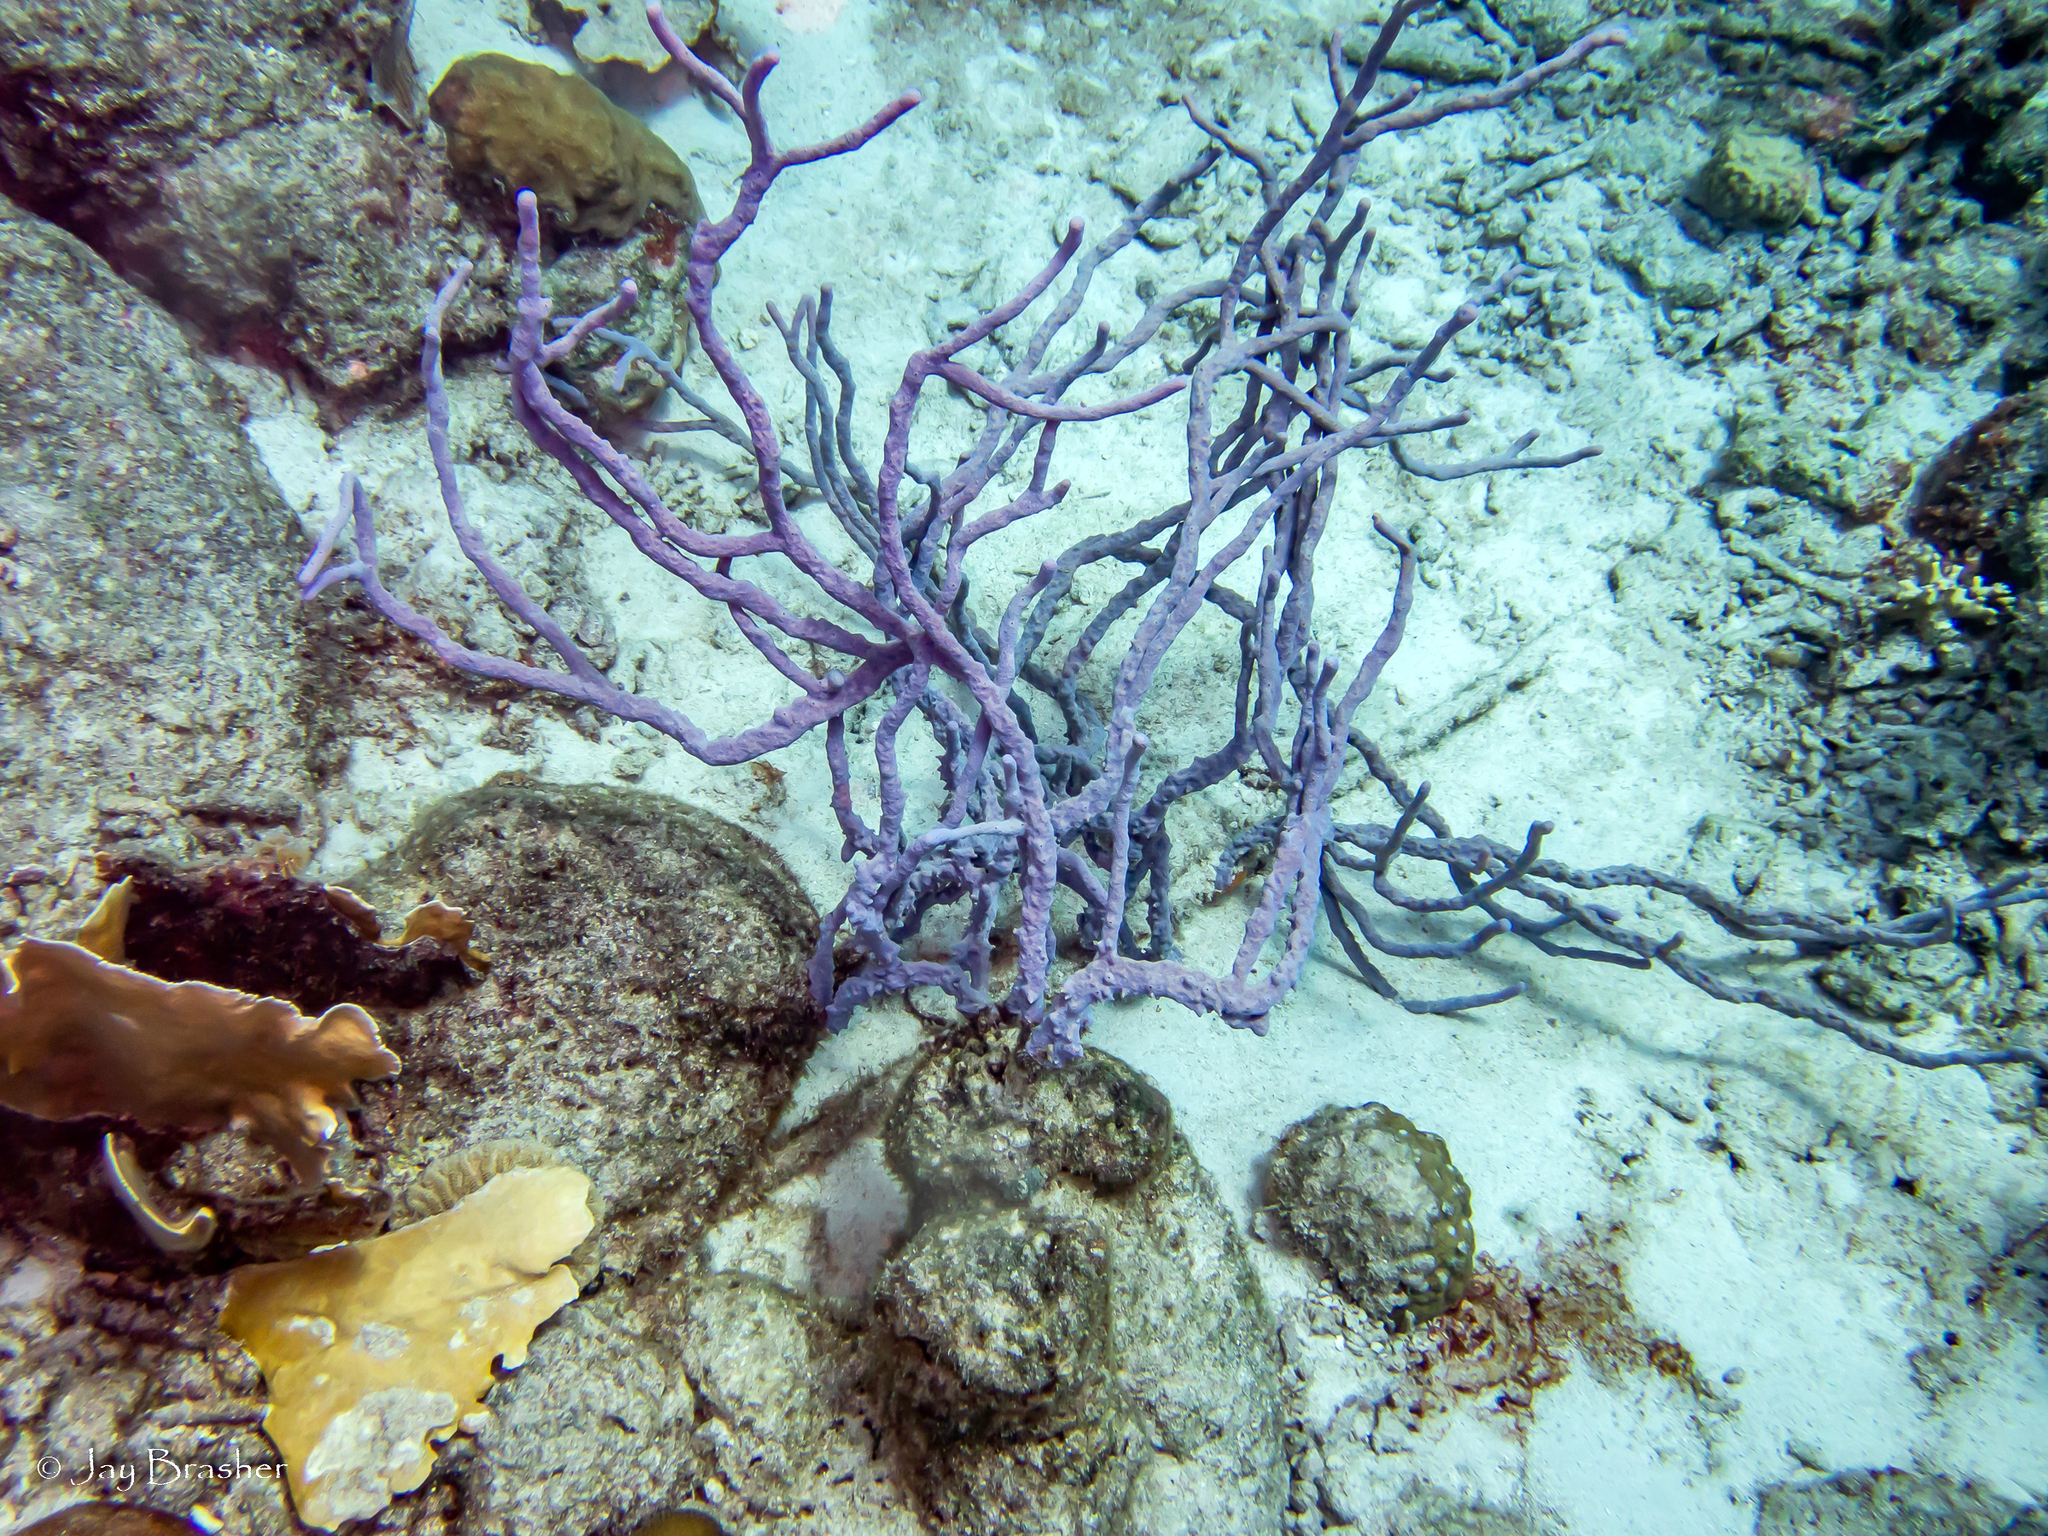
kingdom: Animalia
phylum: Porifera
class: Demospongiae
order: Verongiida
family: Aplysinidae
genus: Aplysina
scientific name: Aplysina cauliformis
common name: Branching candle sponge
